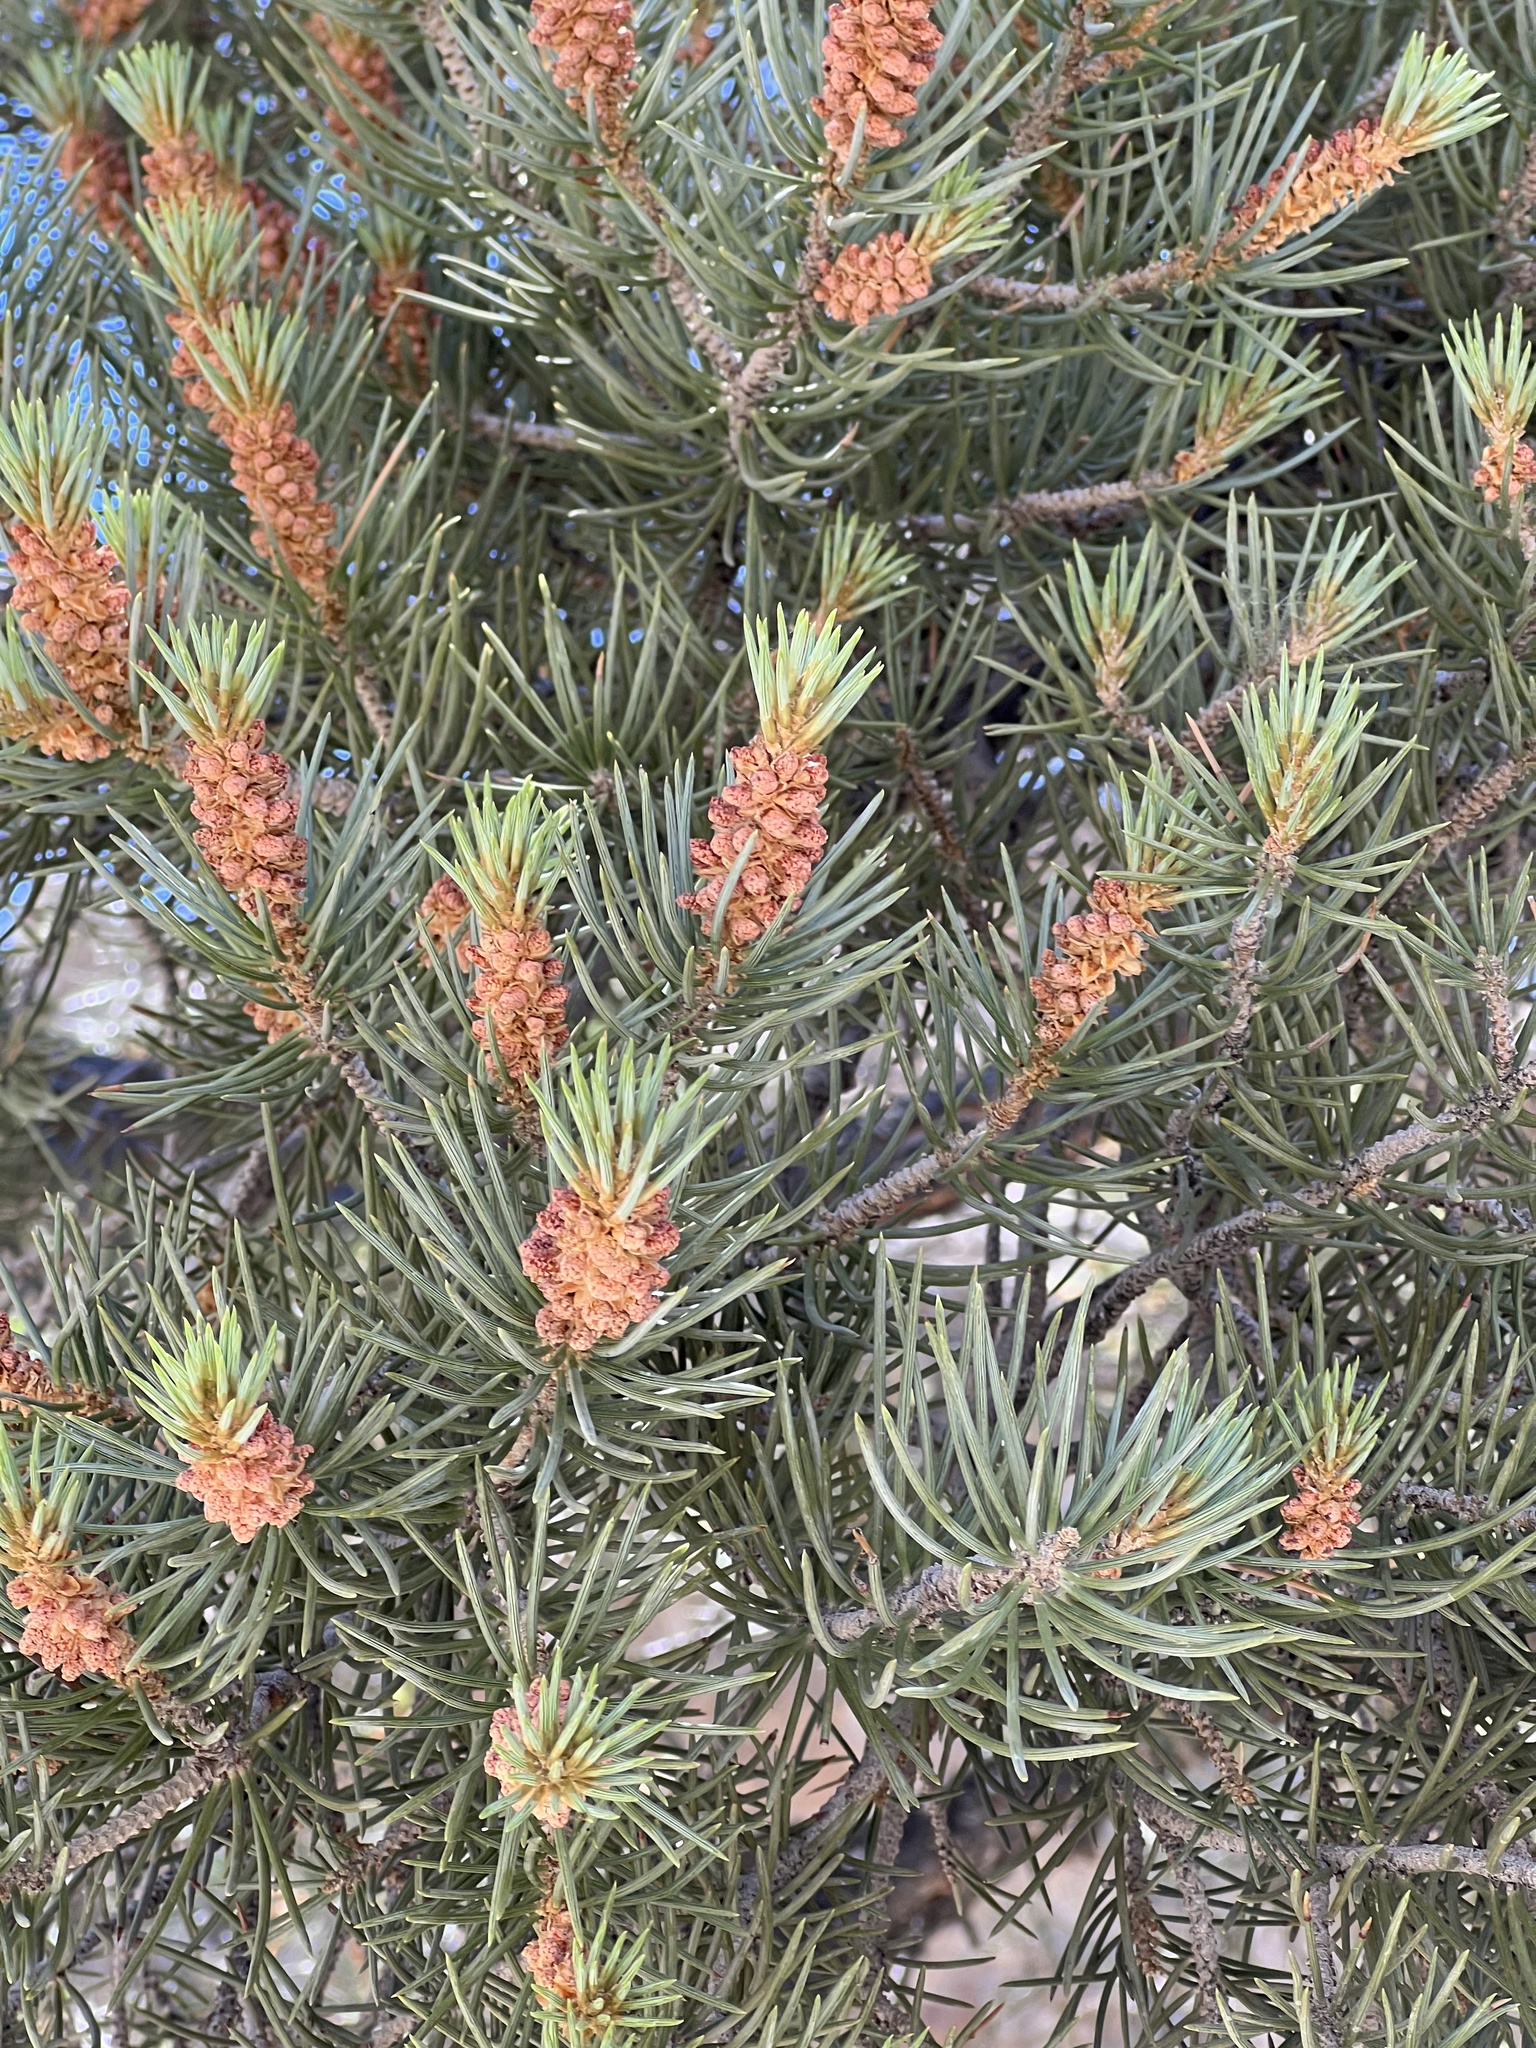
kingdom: Plantae
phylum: Tracheophyta
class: Pinopsida
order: Pinales
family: Pinaceae
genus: Pinus
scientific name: Pinus monophylla
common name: One-leaved nut pine
